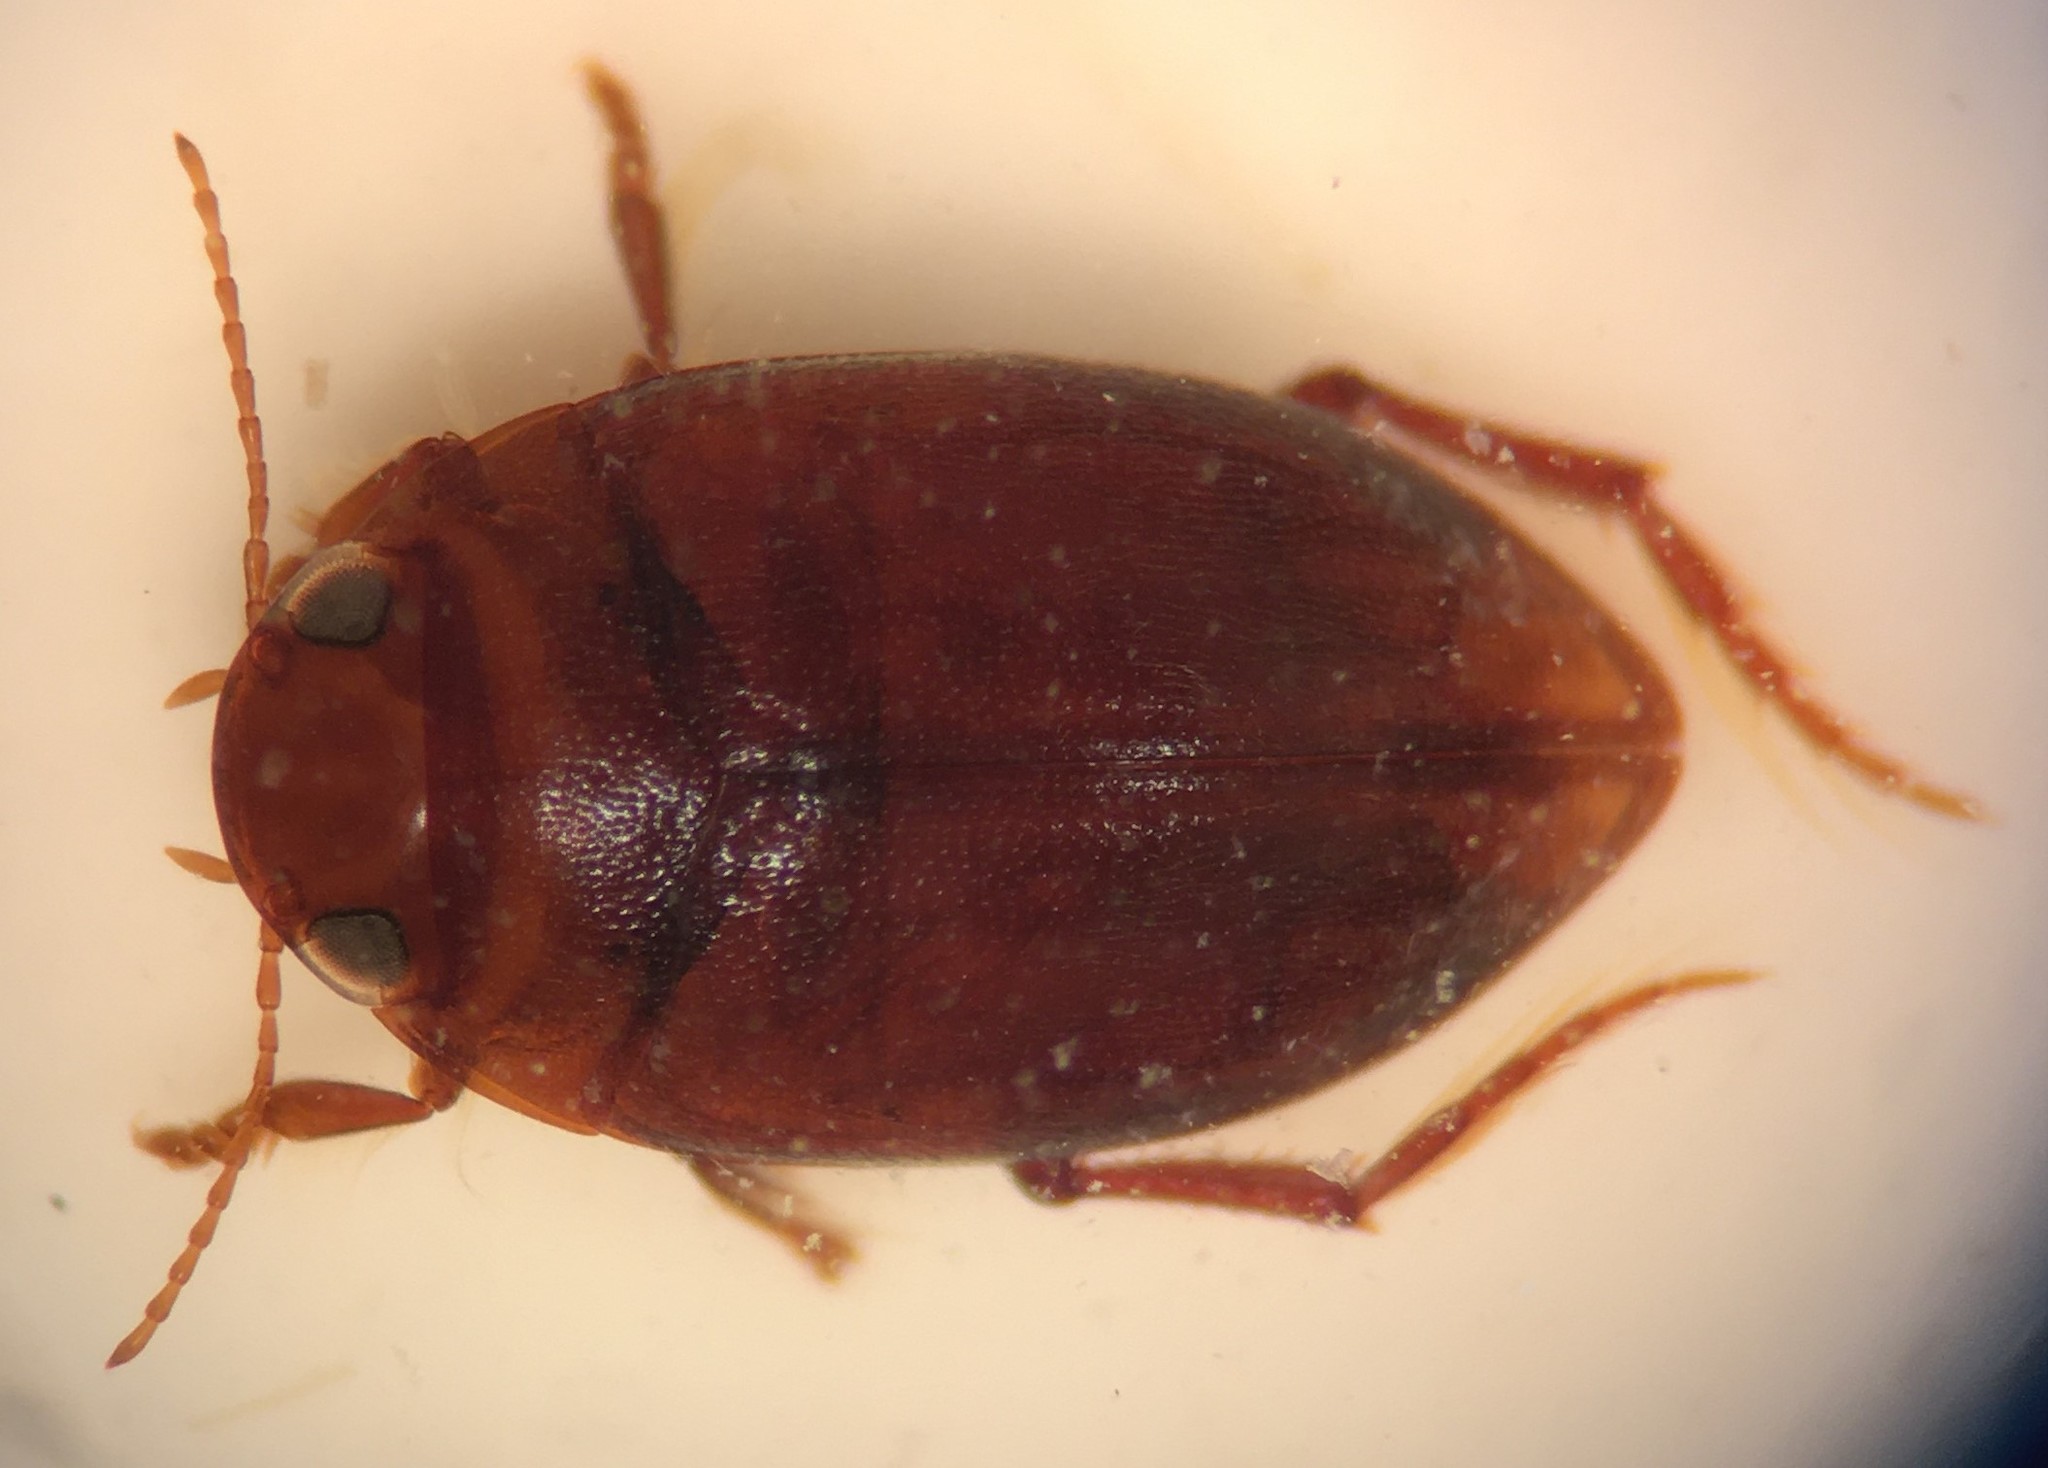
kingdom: Animalia
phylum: Arthropoda
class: Insecta
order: Coleoptera
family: Dytiscidae
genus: Neoporus
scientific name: Neoporus uniformis
